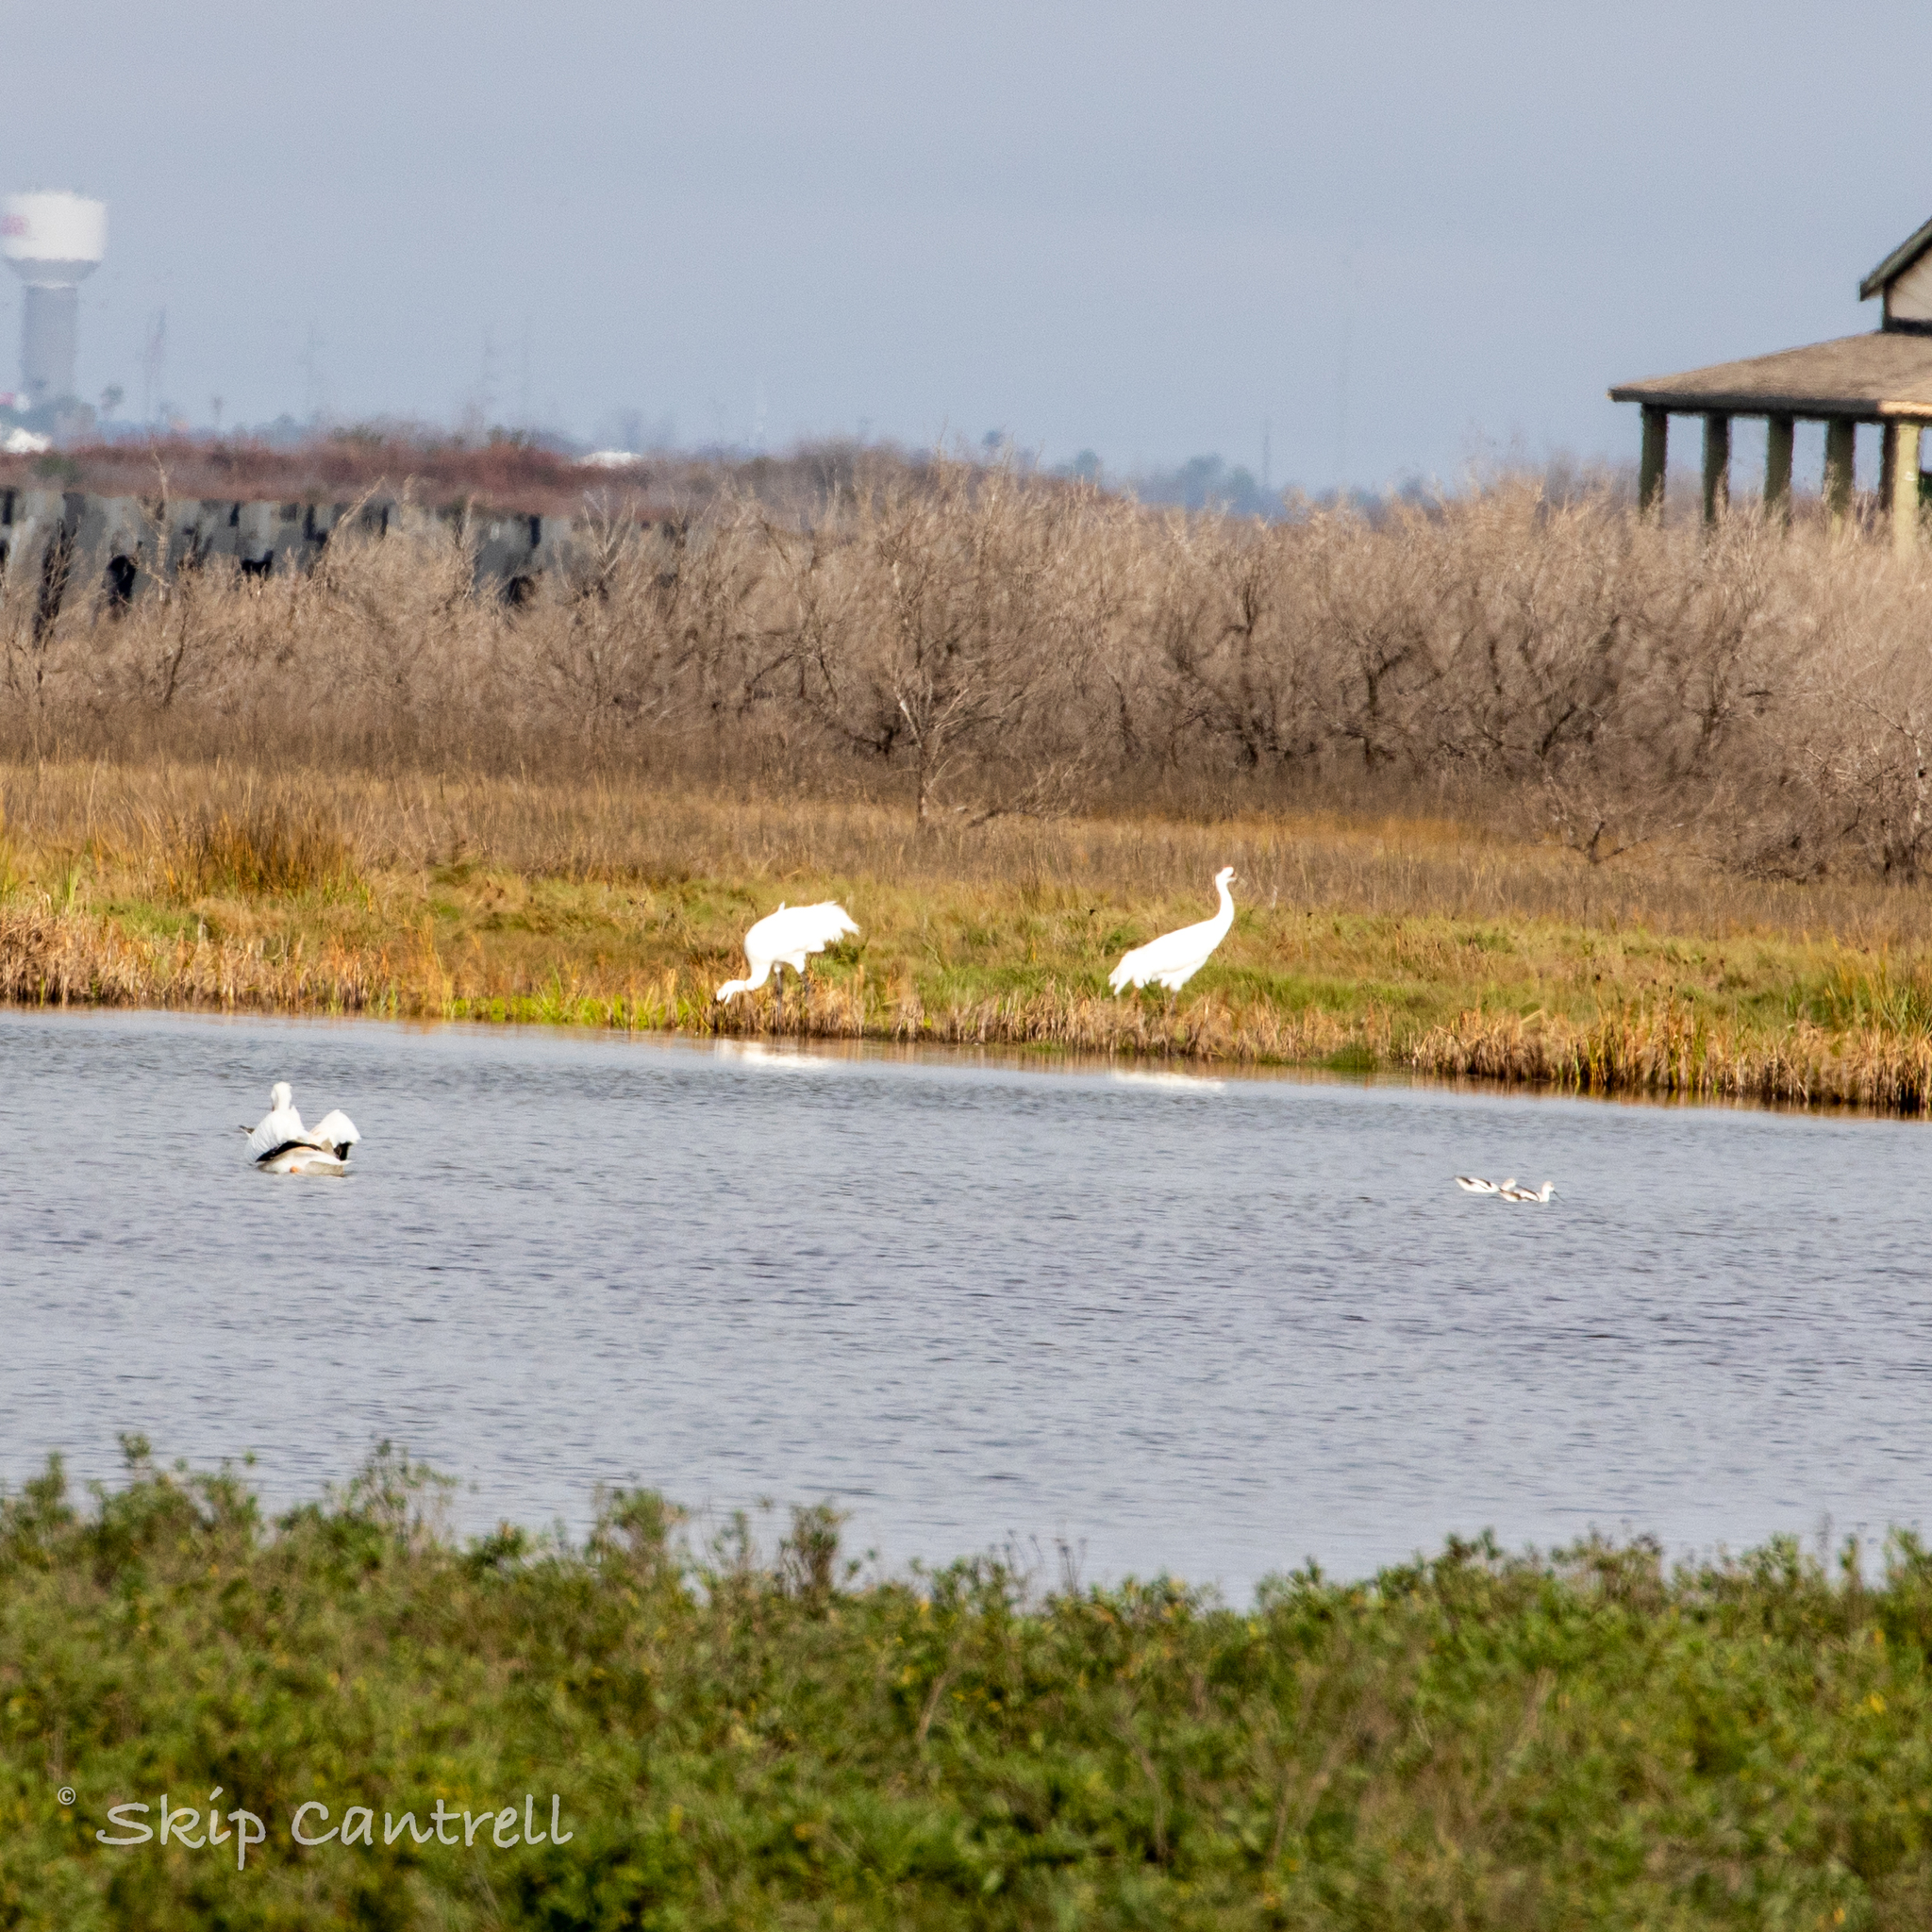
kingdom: Animalia
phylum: Chordata
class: Aves
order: Gruiformes
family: Gruidae
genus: Grus
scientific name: Grus americana
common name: Whooping crane
